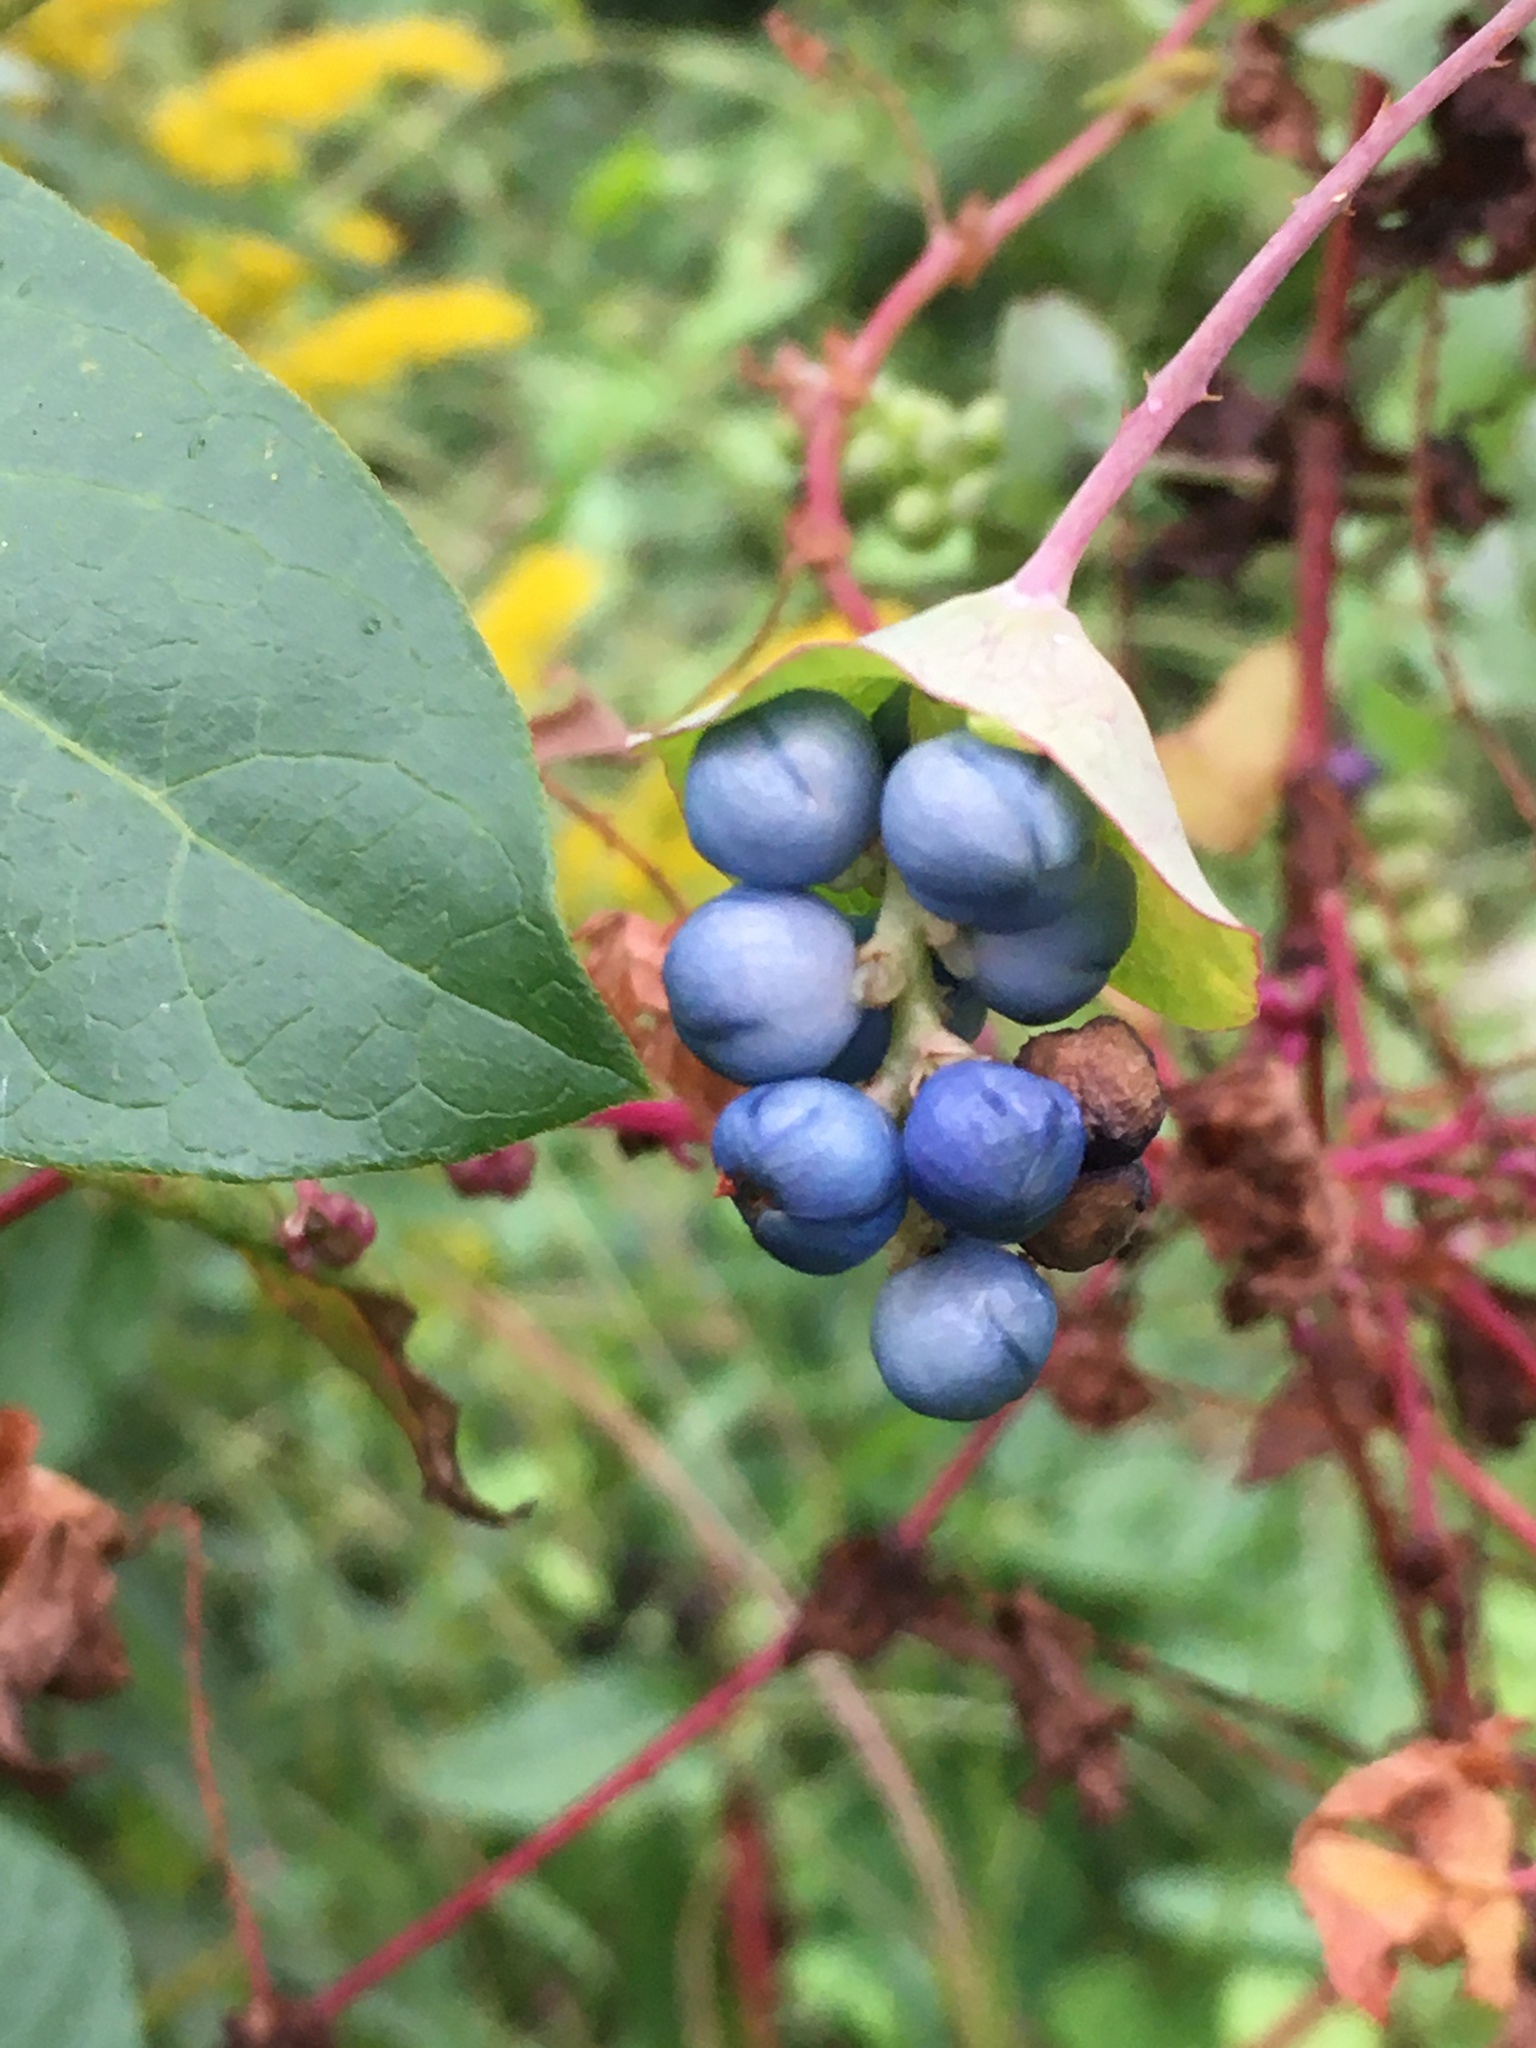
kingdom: Plantae
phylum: Tracheophyta
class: Magnoliopsida
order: Caryophyllales
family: Polygonaceae
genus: Persicaria
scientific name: Persicaria perfoliata
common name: Asiatic tearthumb
